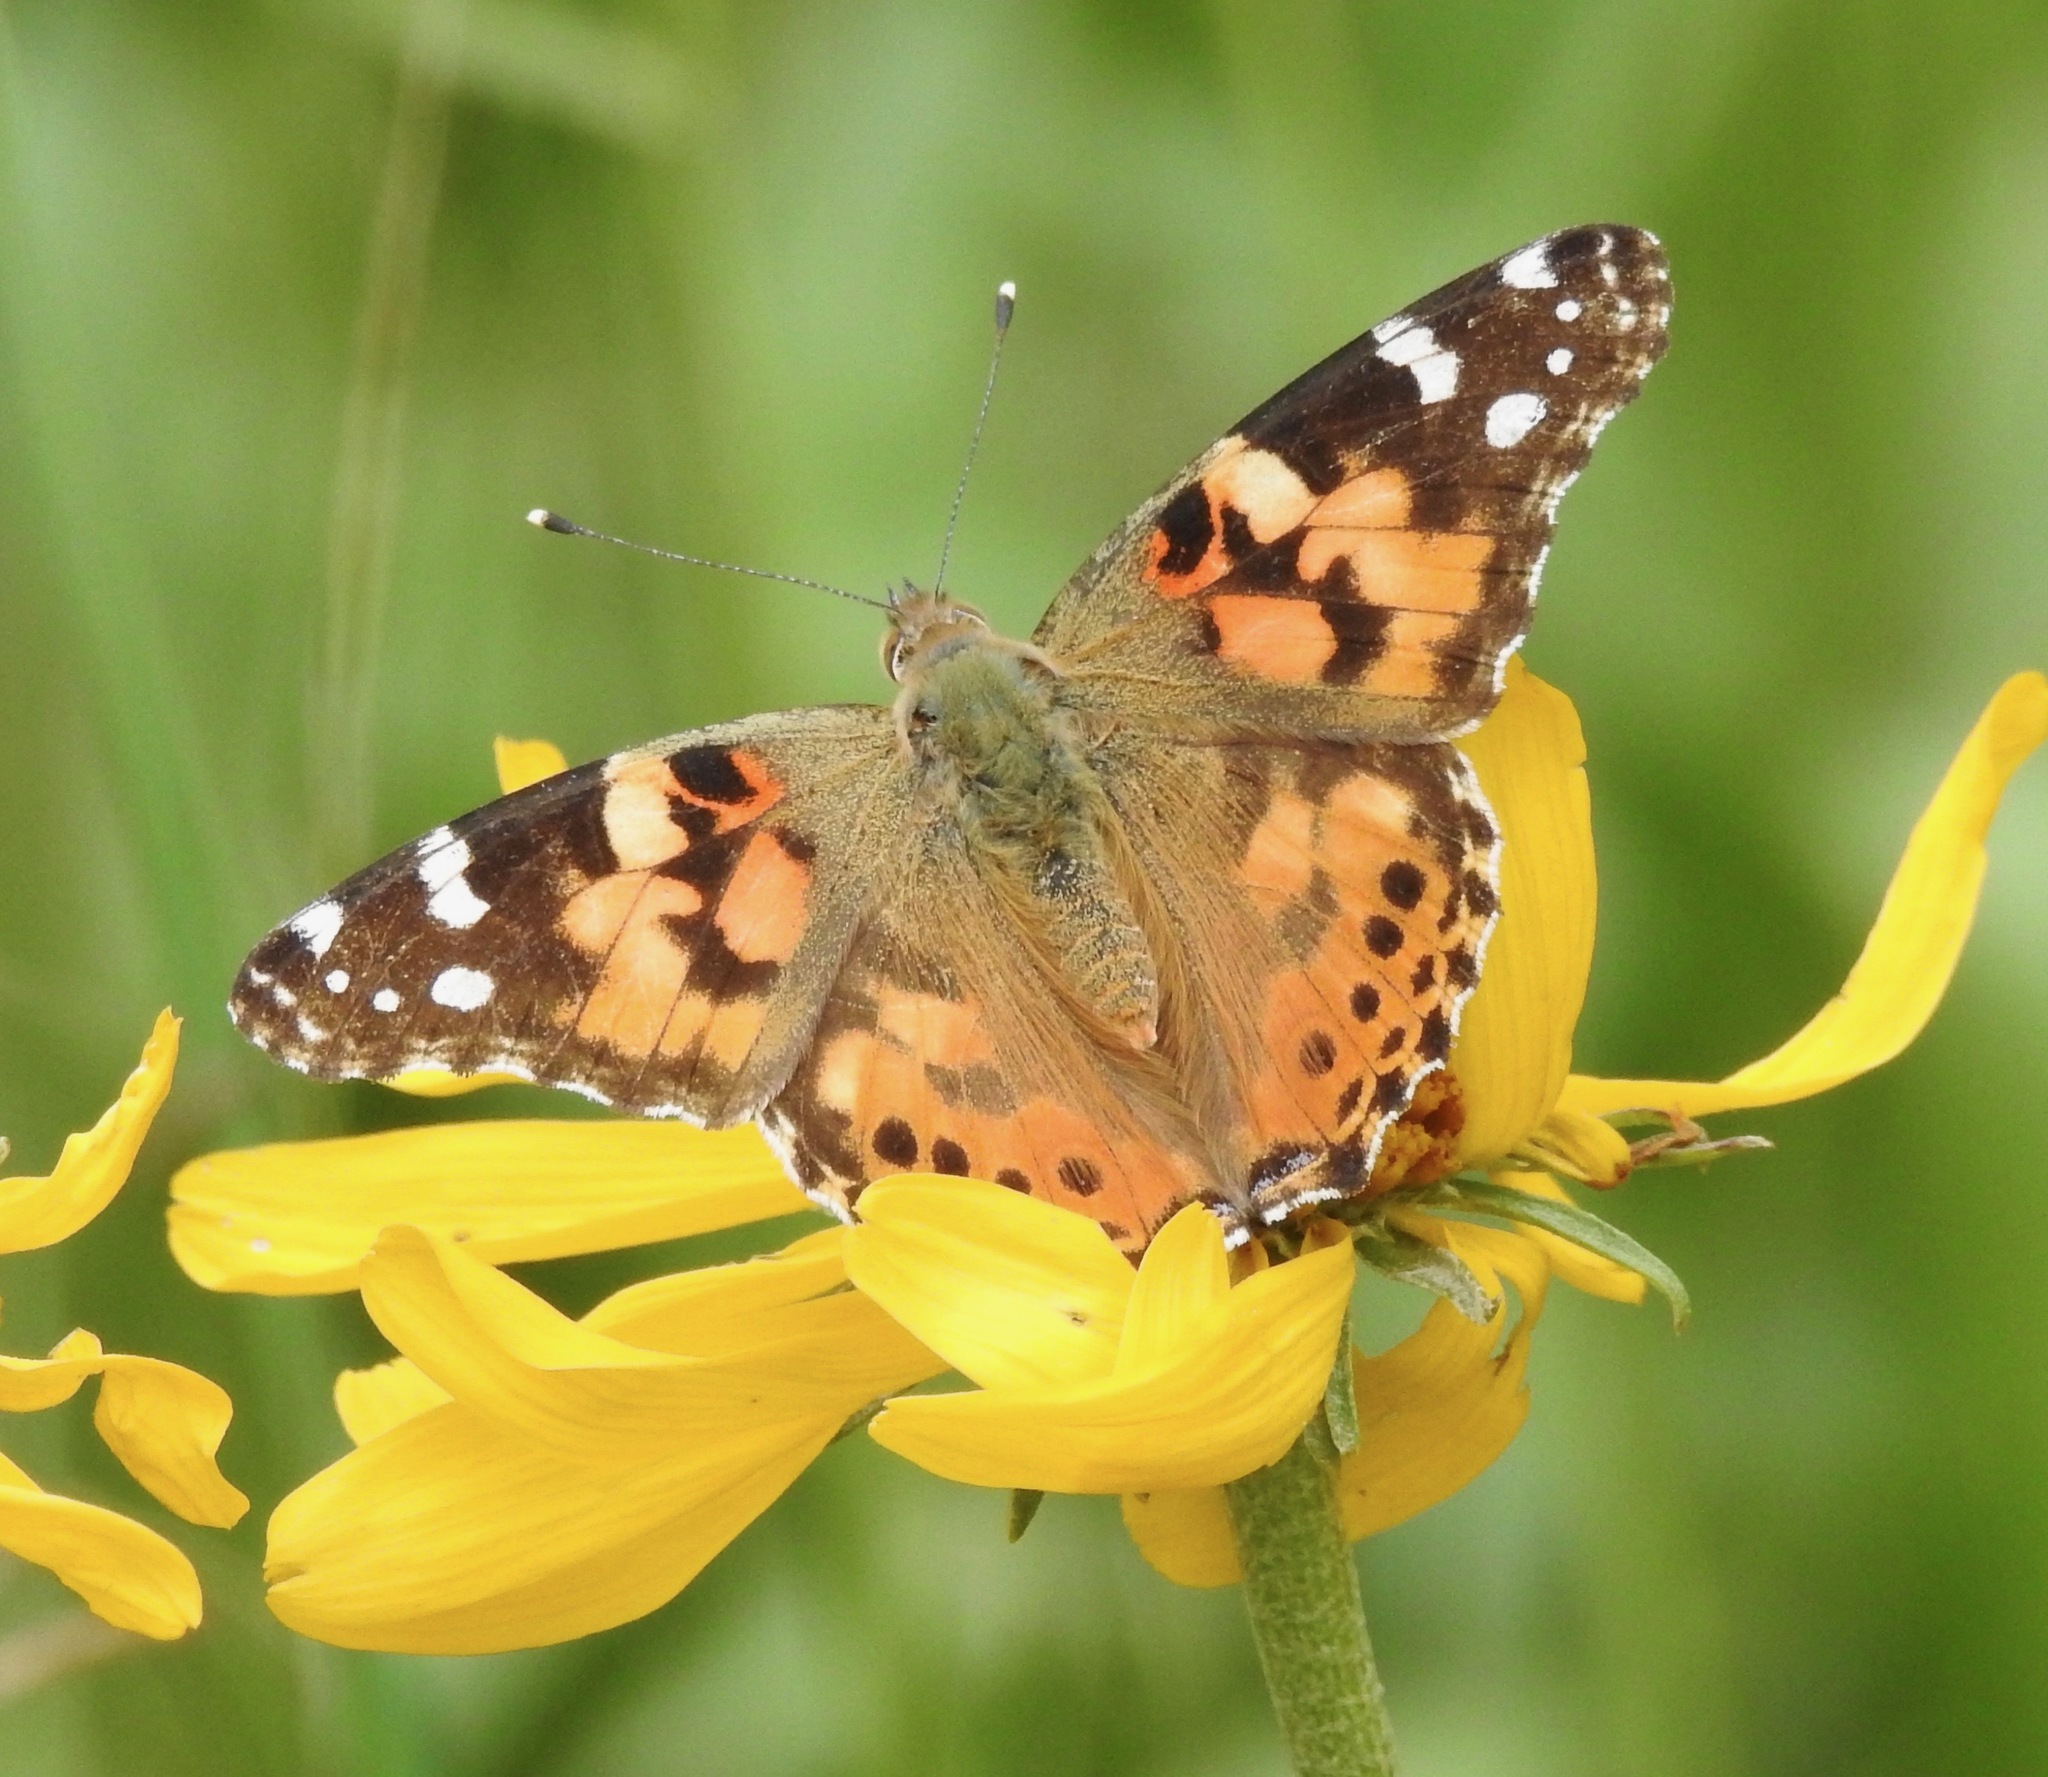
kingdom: Animalia
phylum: Arthropoda
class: Insecta
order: Lepidoptera
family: Nymphalidae
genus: Vanessa
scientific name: Vanessa cardui
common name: Painted lady
